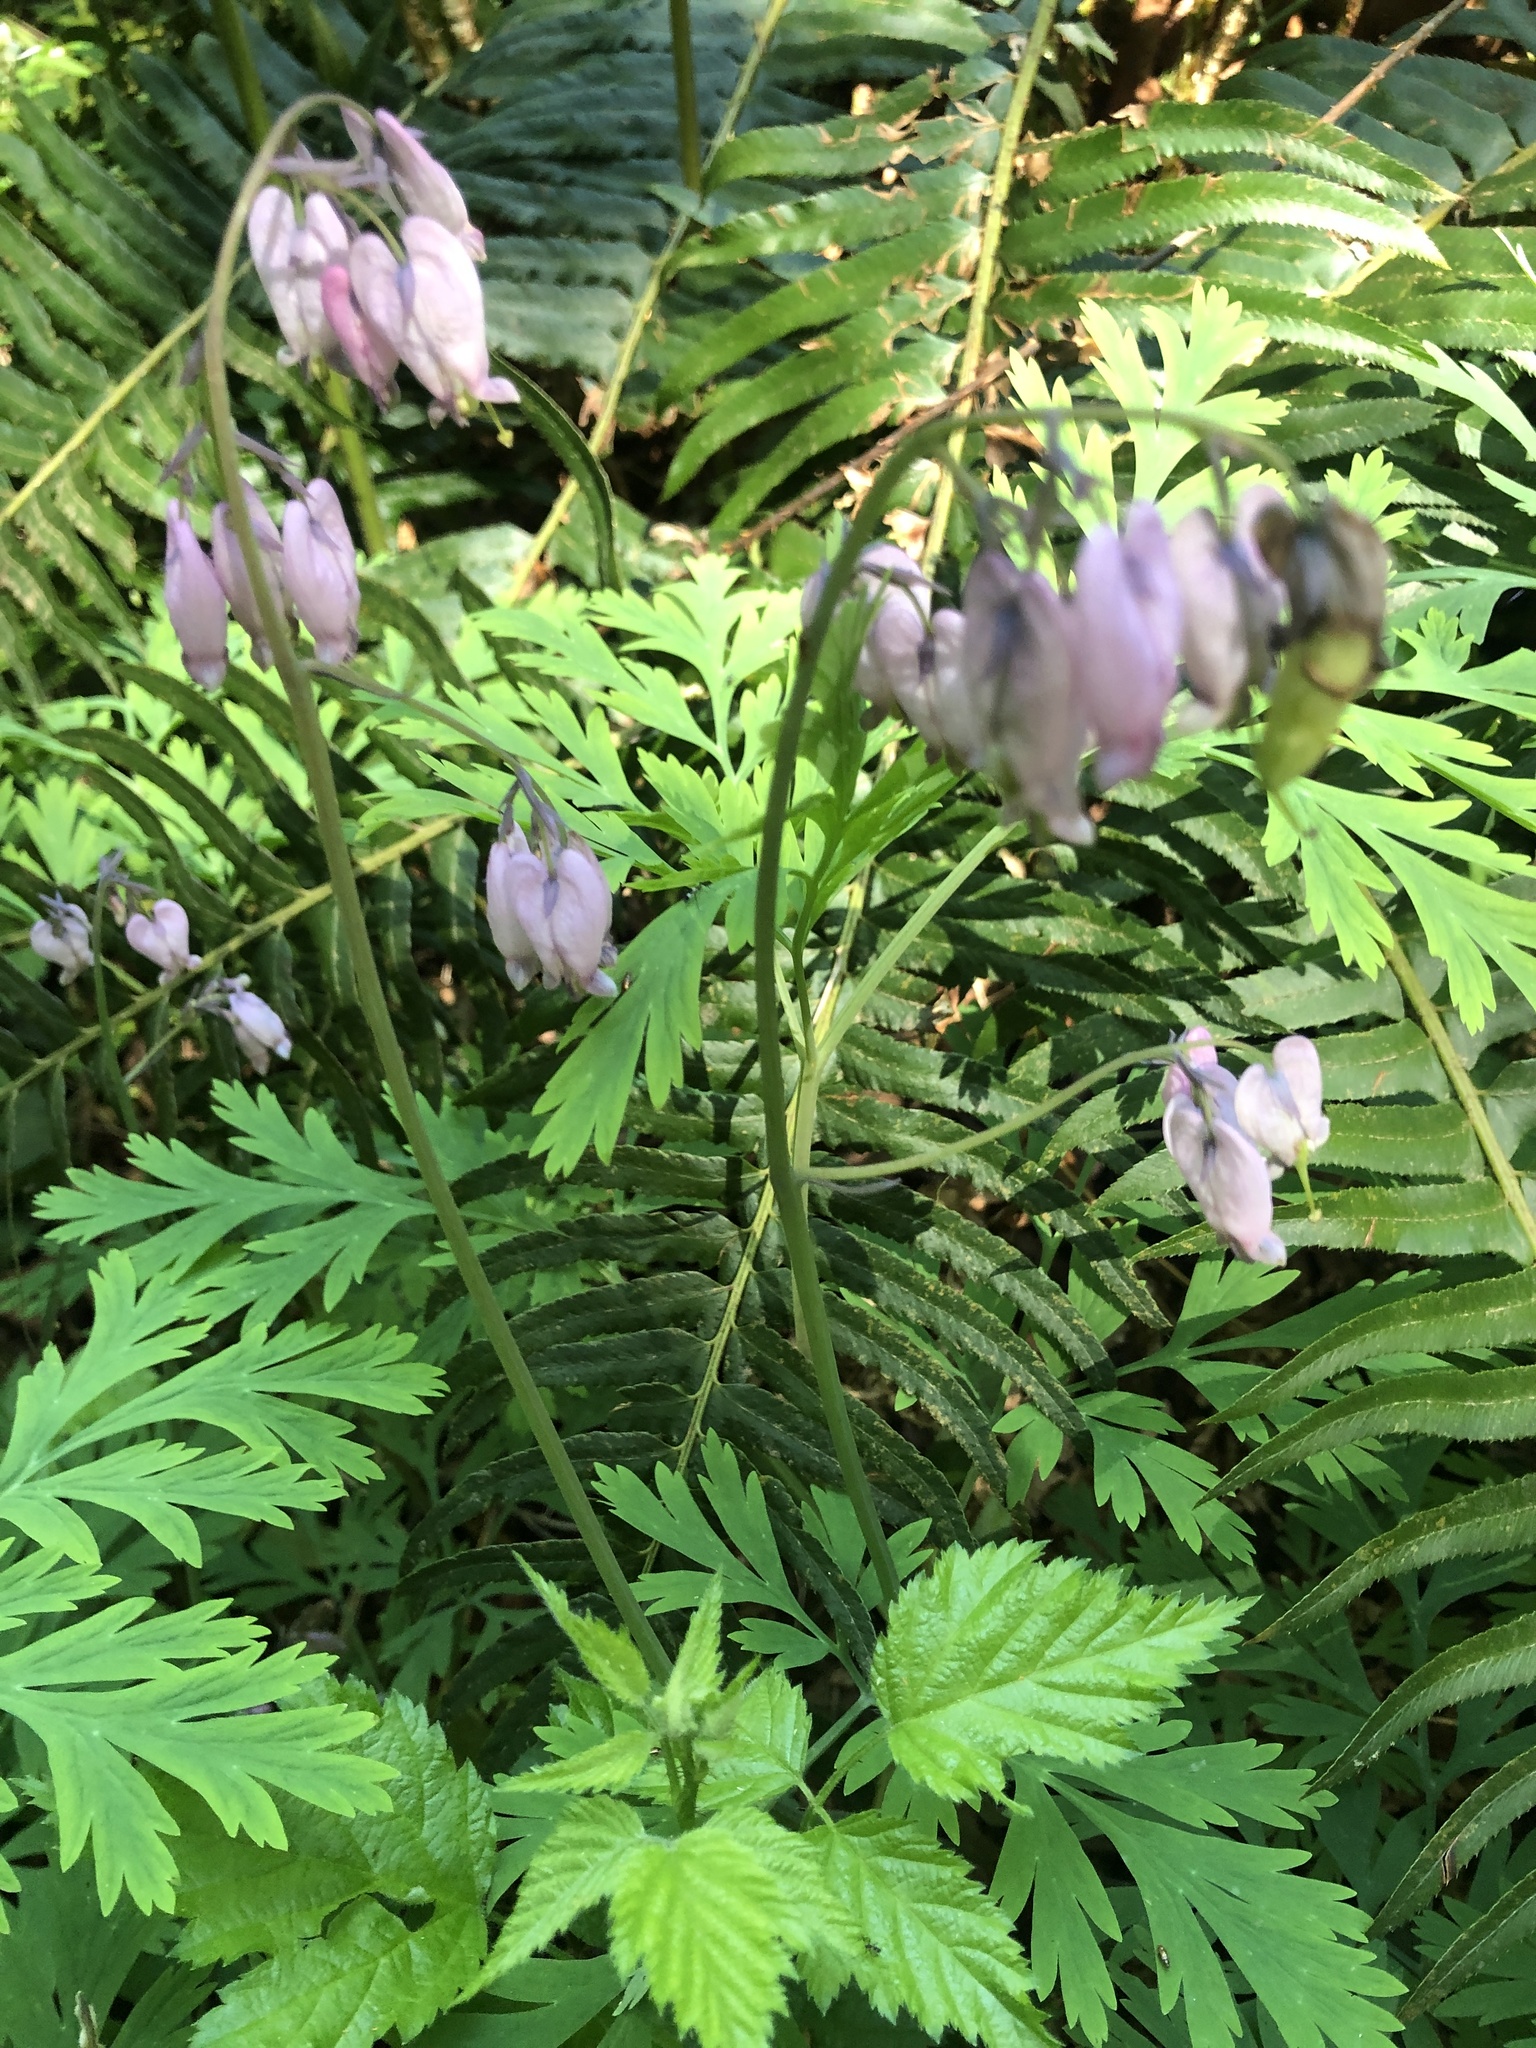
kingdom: Plantae
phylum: Tracheophyta
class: Magnoliopsida
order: Ranunculales
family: Papaveraceae
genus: Dicentra
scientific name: Dicentra formosa
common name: Bleeding-heart
